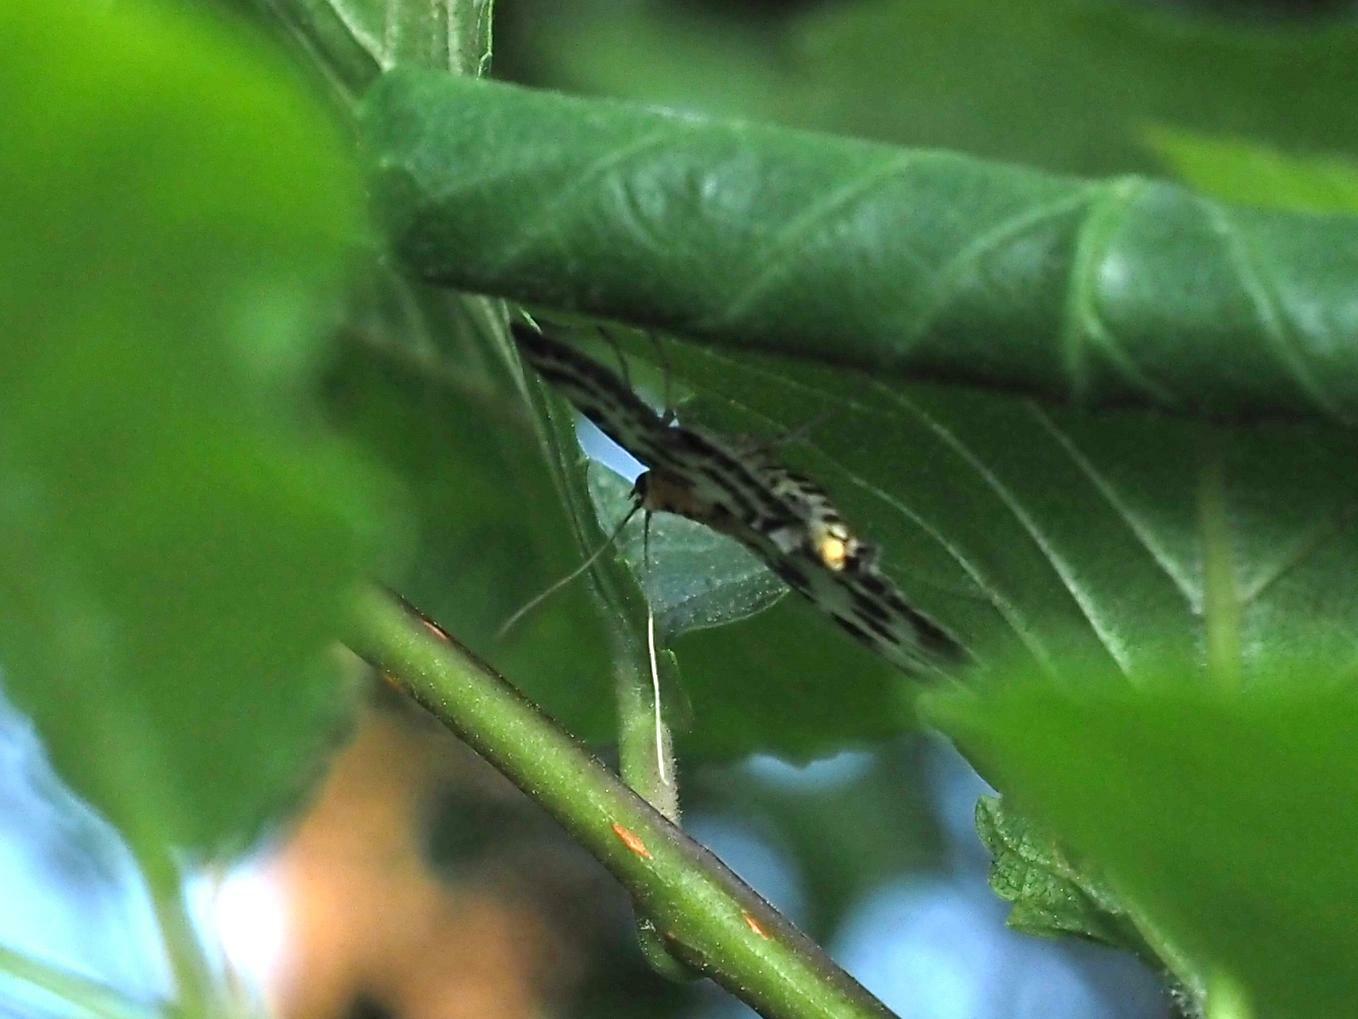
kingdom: Animalia
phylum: Arthropoda
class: Insecta
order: Lepidoptera
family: Crambidae
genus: Anania
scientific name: Anania hortulata
